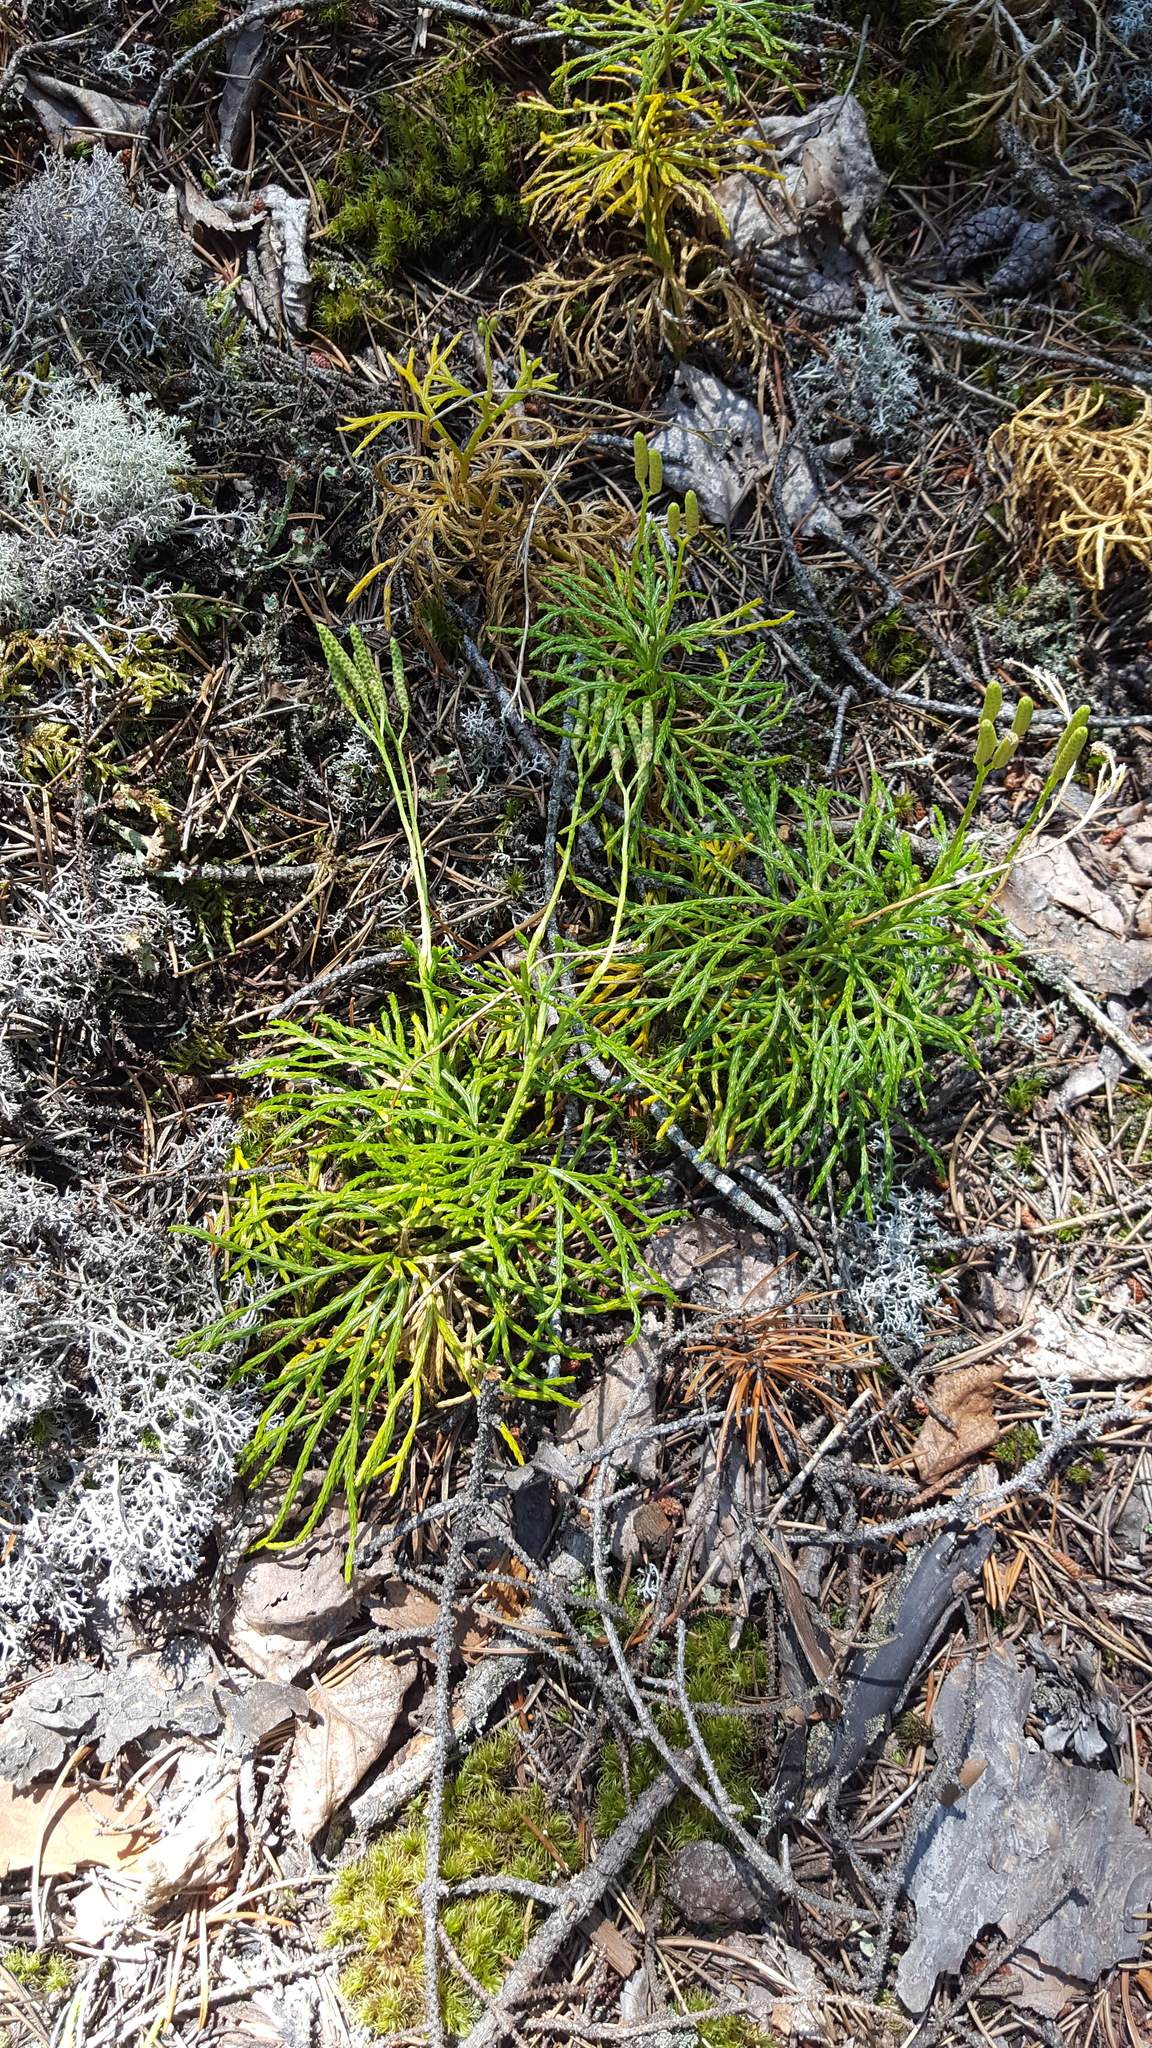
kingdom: Plantae
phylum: Tracheophyta
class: Lycopodiopsida
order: Lycopodiales
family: Lycopodiaceae
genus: Diphasiastrum
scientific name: Diphasiastrum digitatum
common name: Southern running-pine
